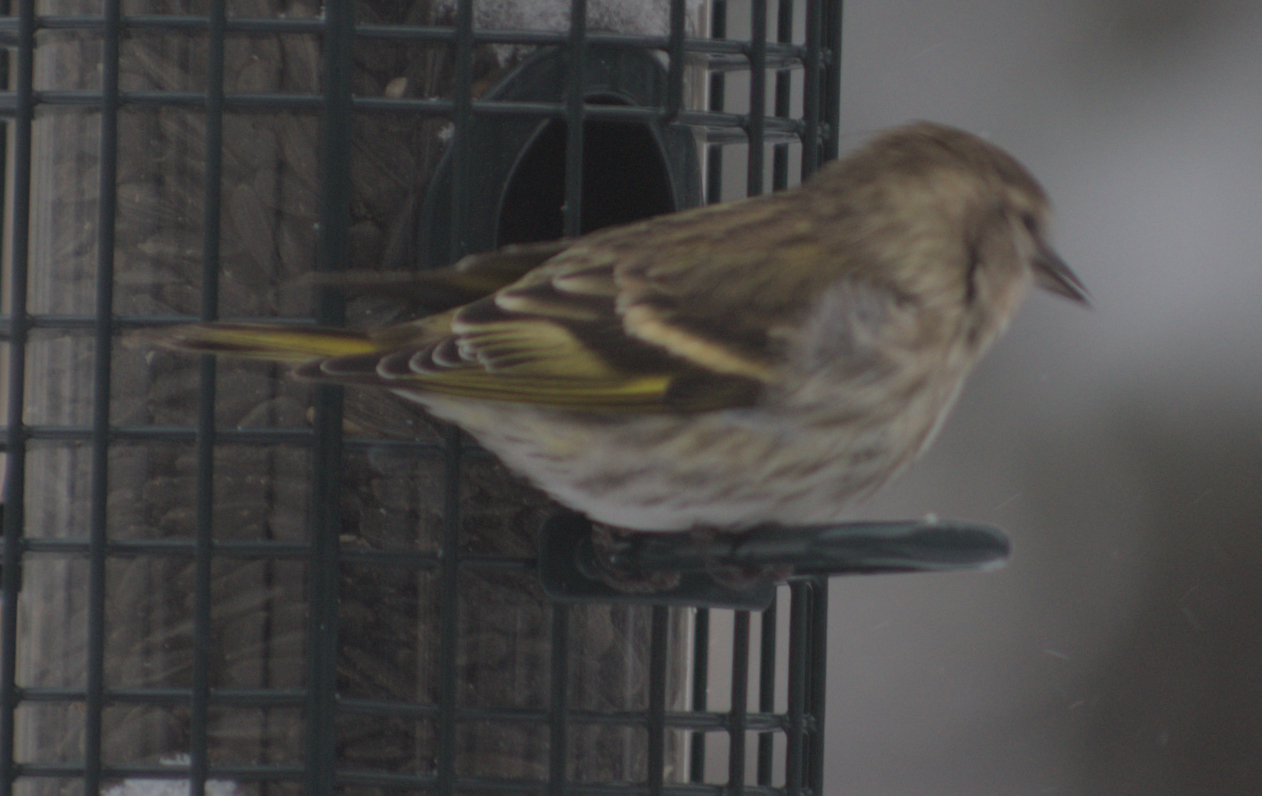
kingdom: Animalia
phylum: Chordata
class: Aves
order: Passeriformes
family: Fringillidae
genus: Spinus
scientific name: Spinus pinus
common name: Pine siskin
